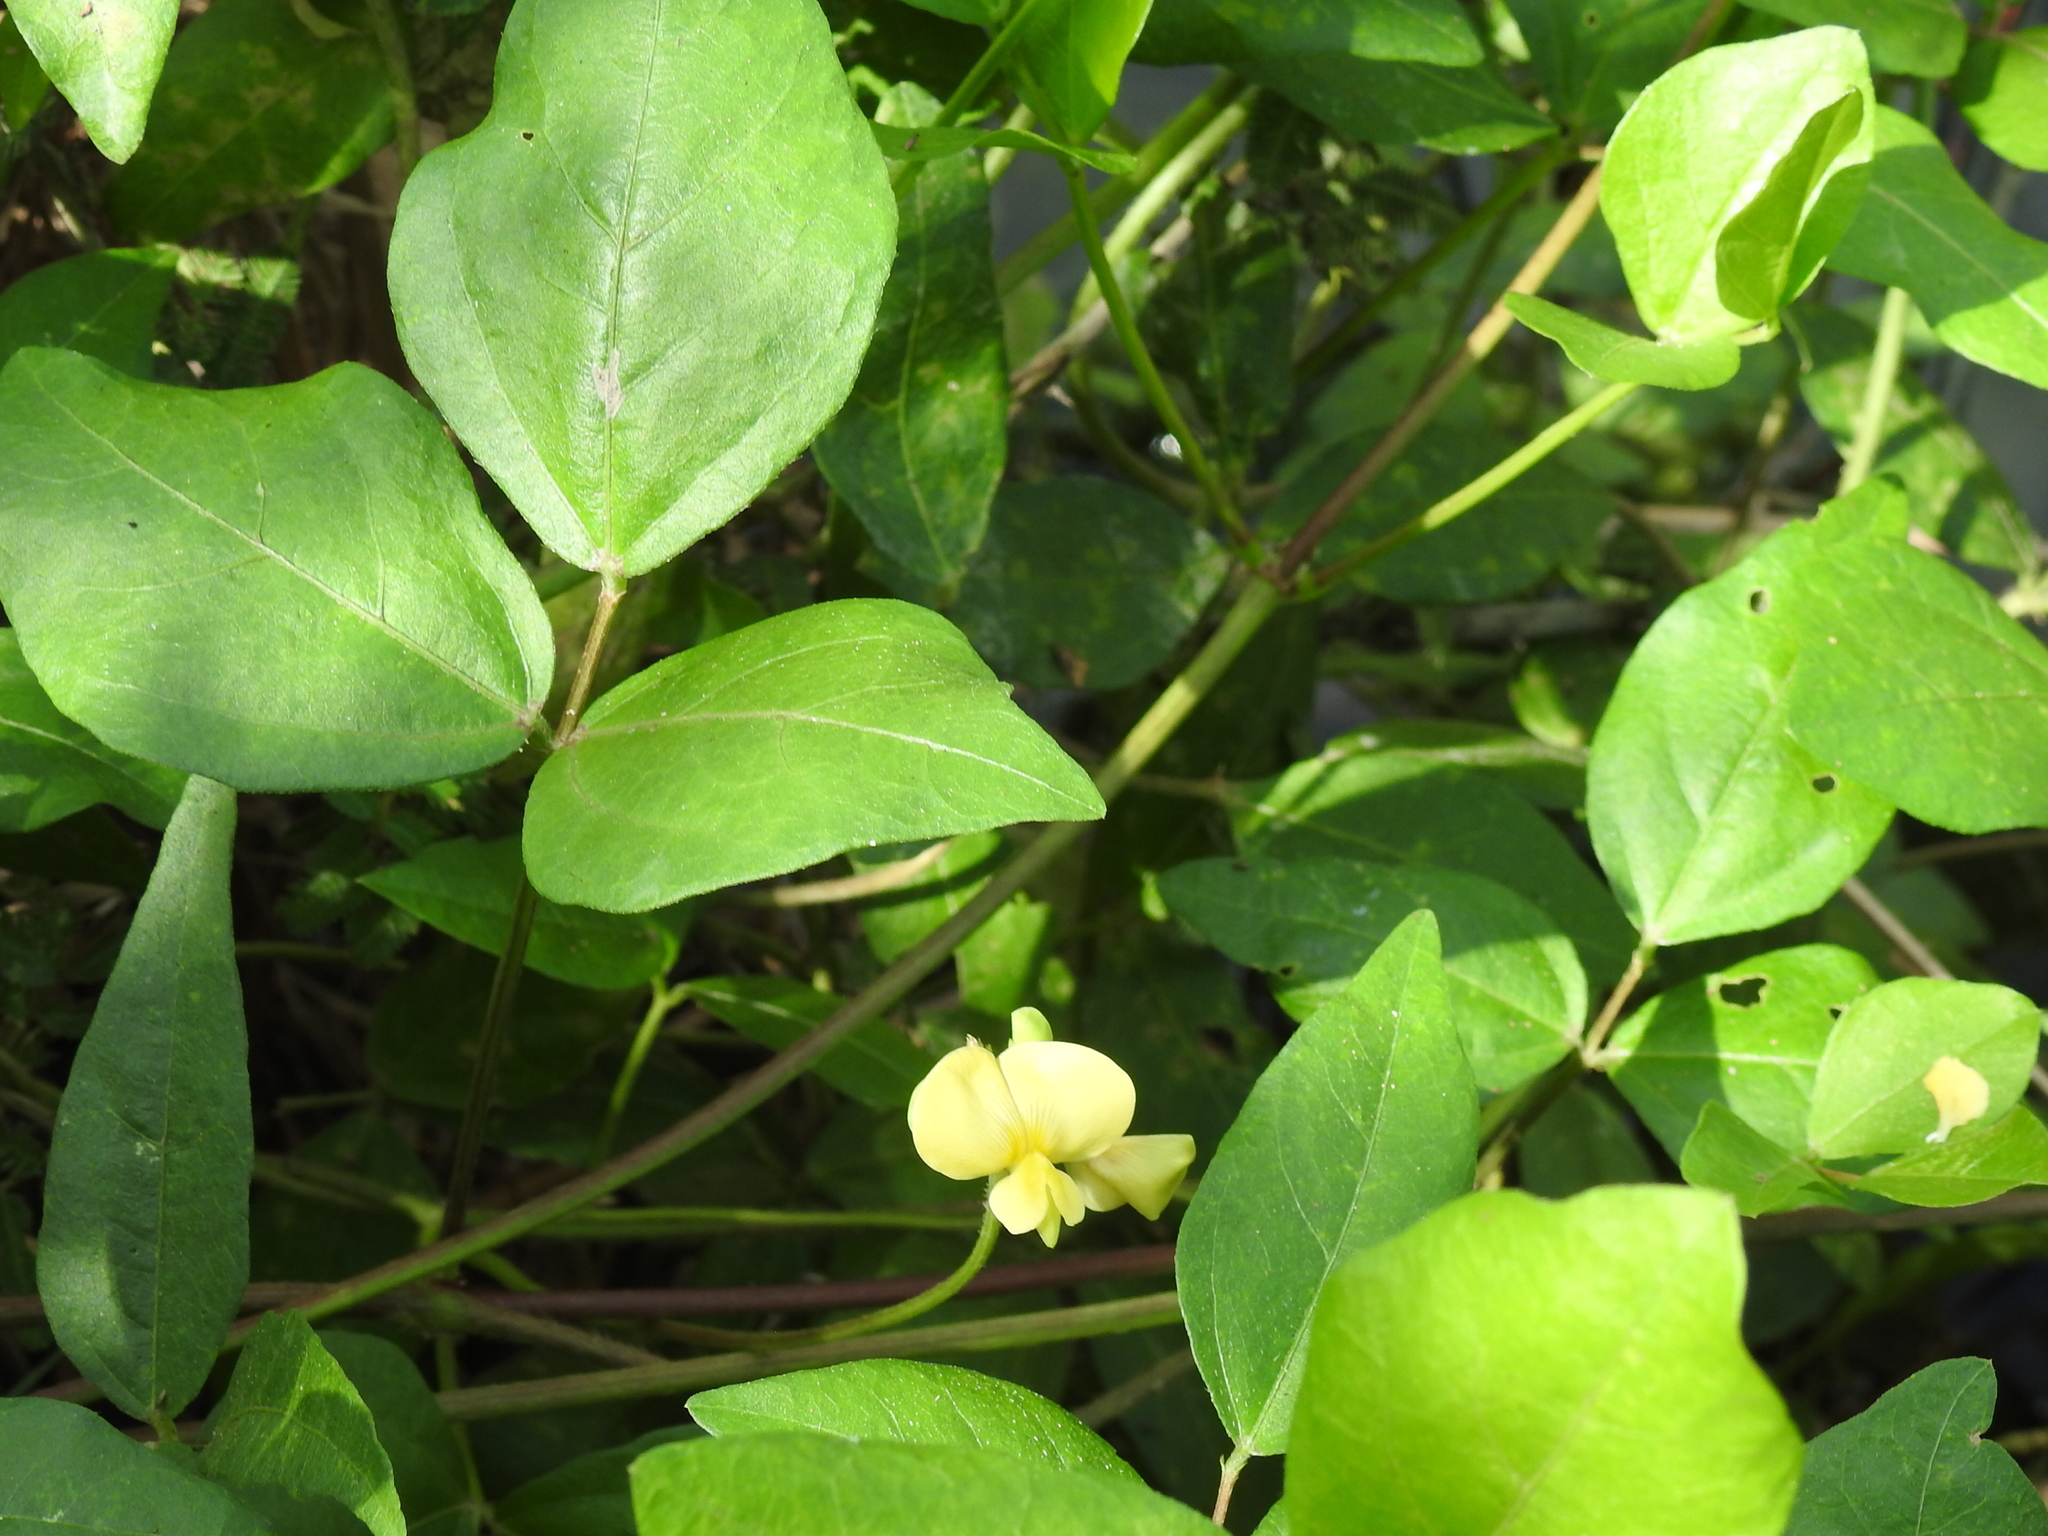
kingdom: Plantae
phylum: Tracheophyta
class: Magnoliopsida
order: Fabales
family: Fabaceae
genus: Vigna
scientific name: Vigna luteola
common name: Hairypod cowpea
